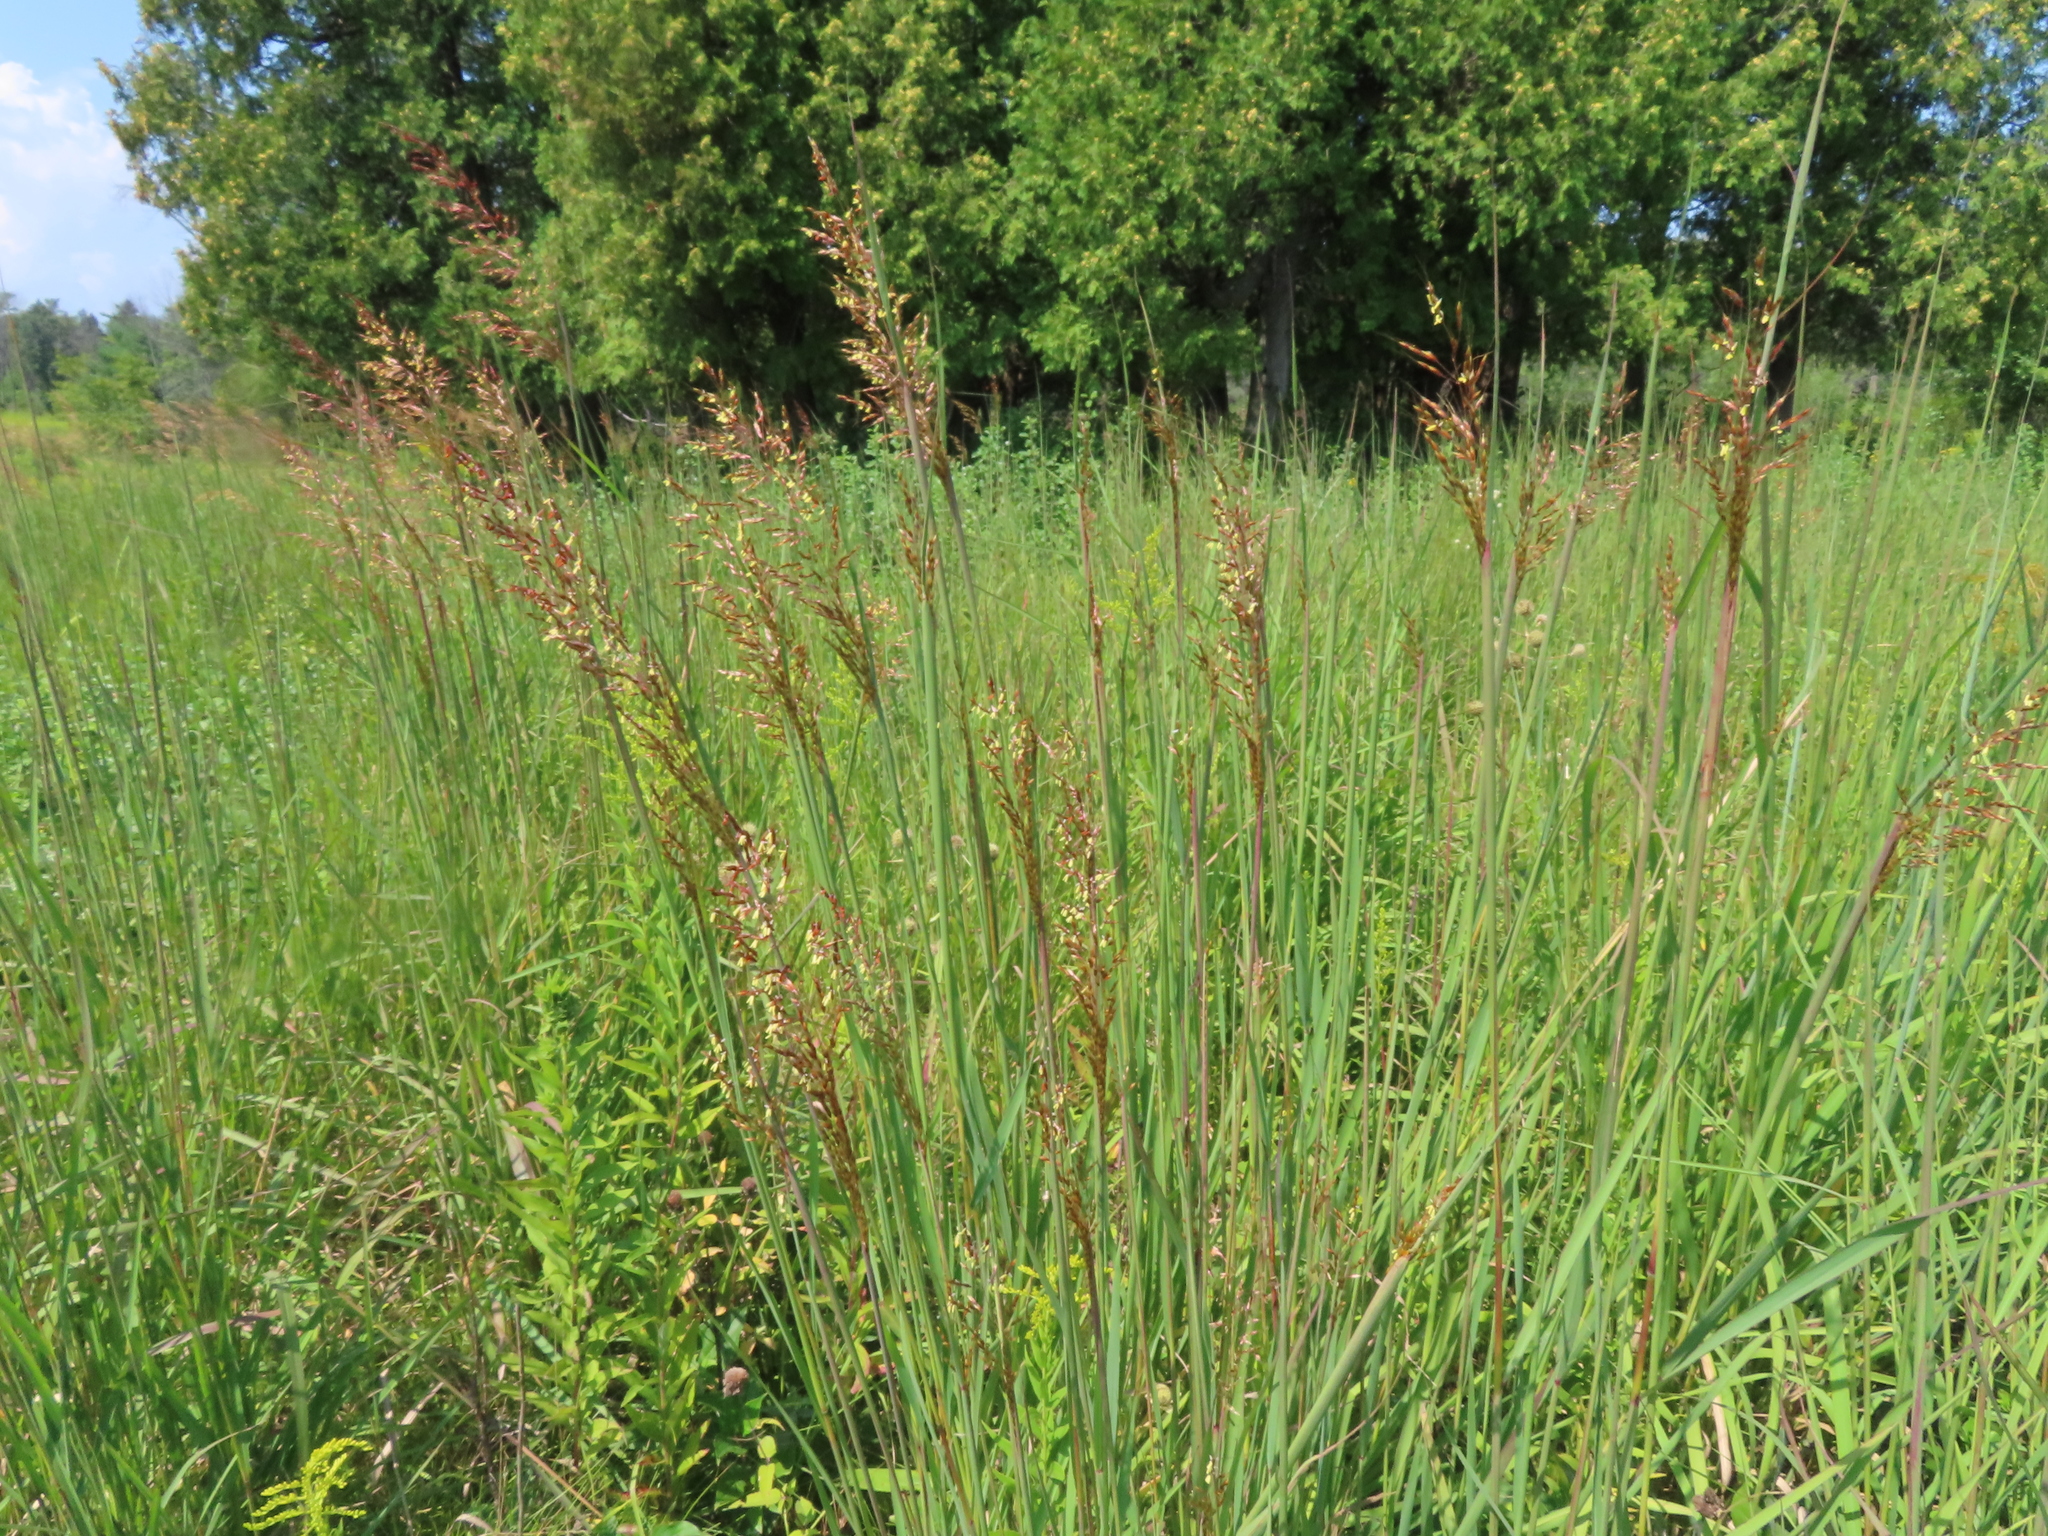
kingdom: Plantae
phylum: Tracheophyta
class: Liliopsida
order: Poales
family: Poaceae
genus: Sorghastrum
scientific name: Sorghastrum nutans
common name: Indian grass
